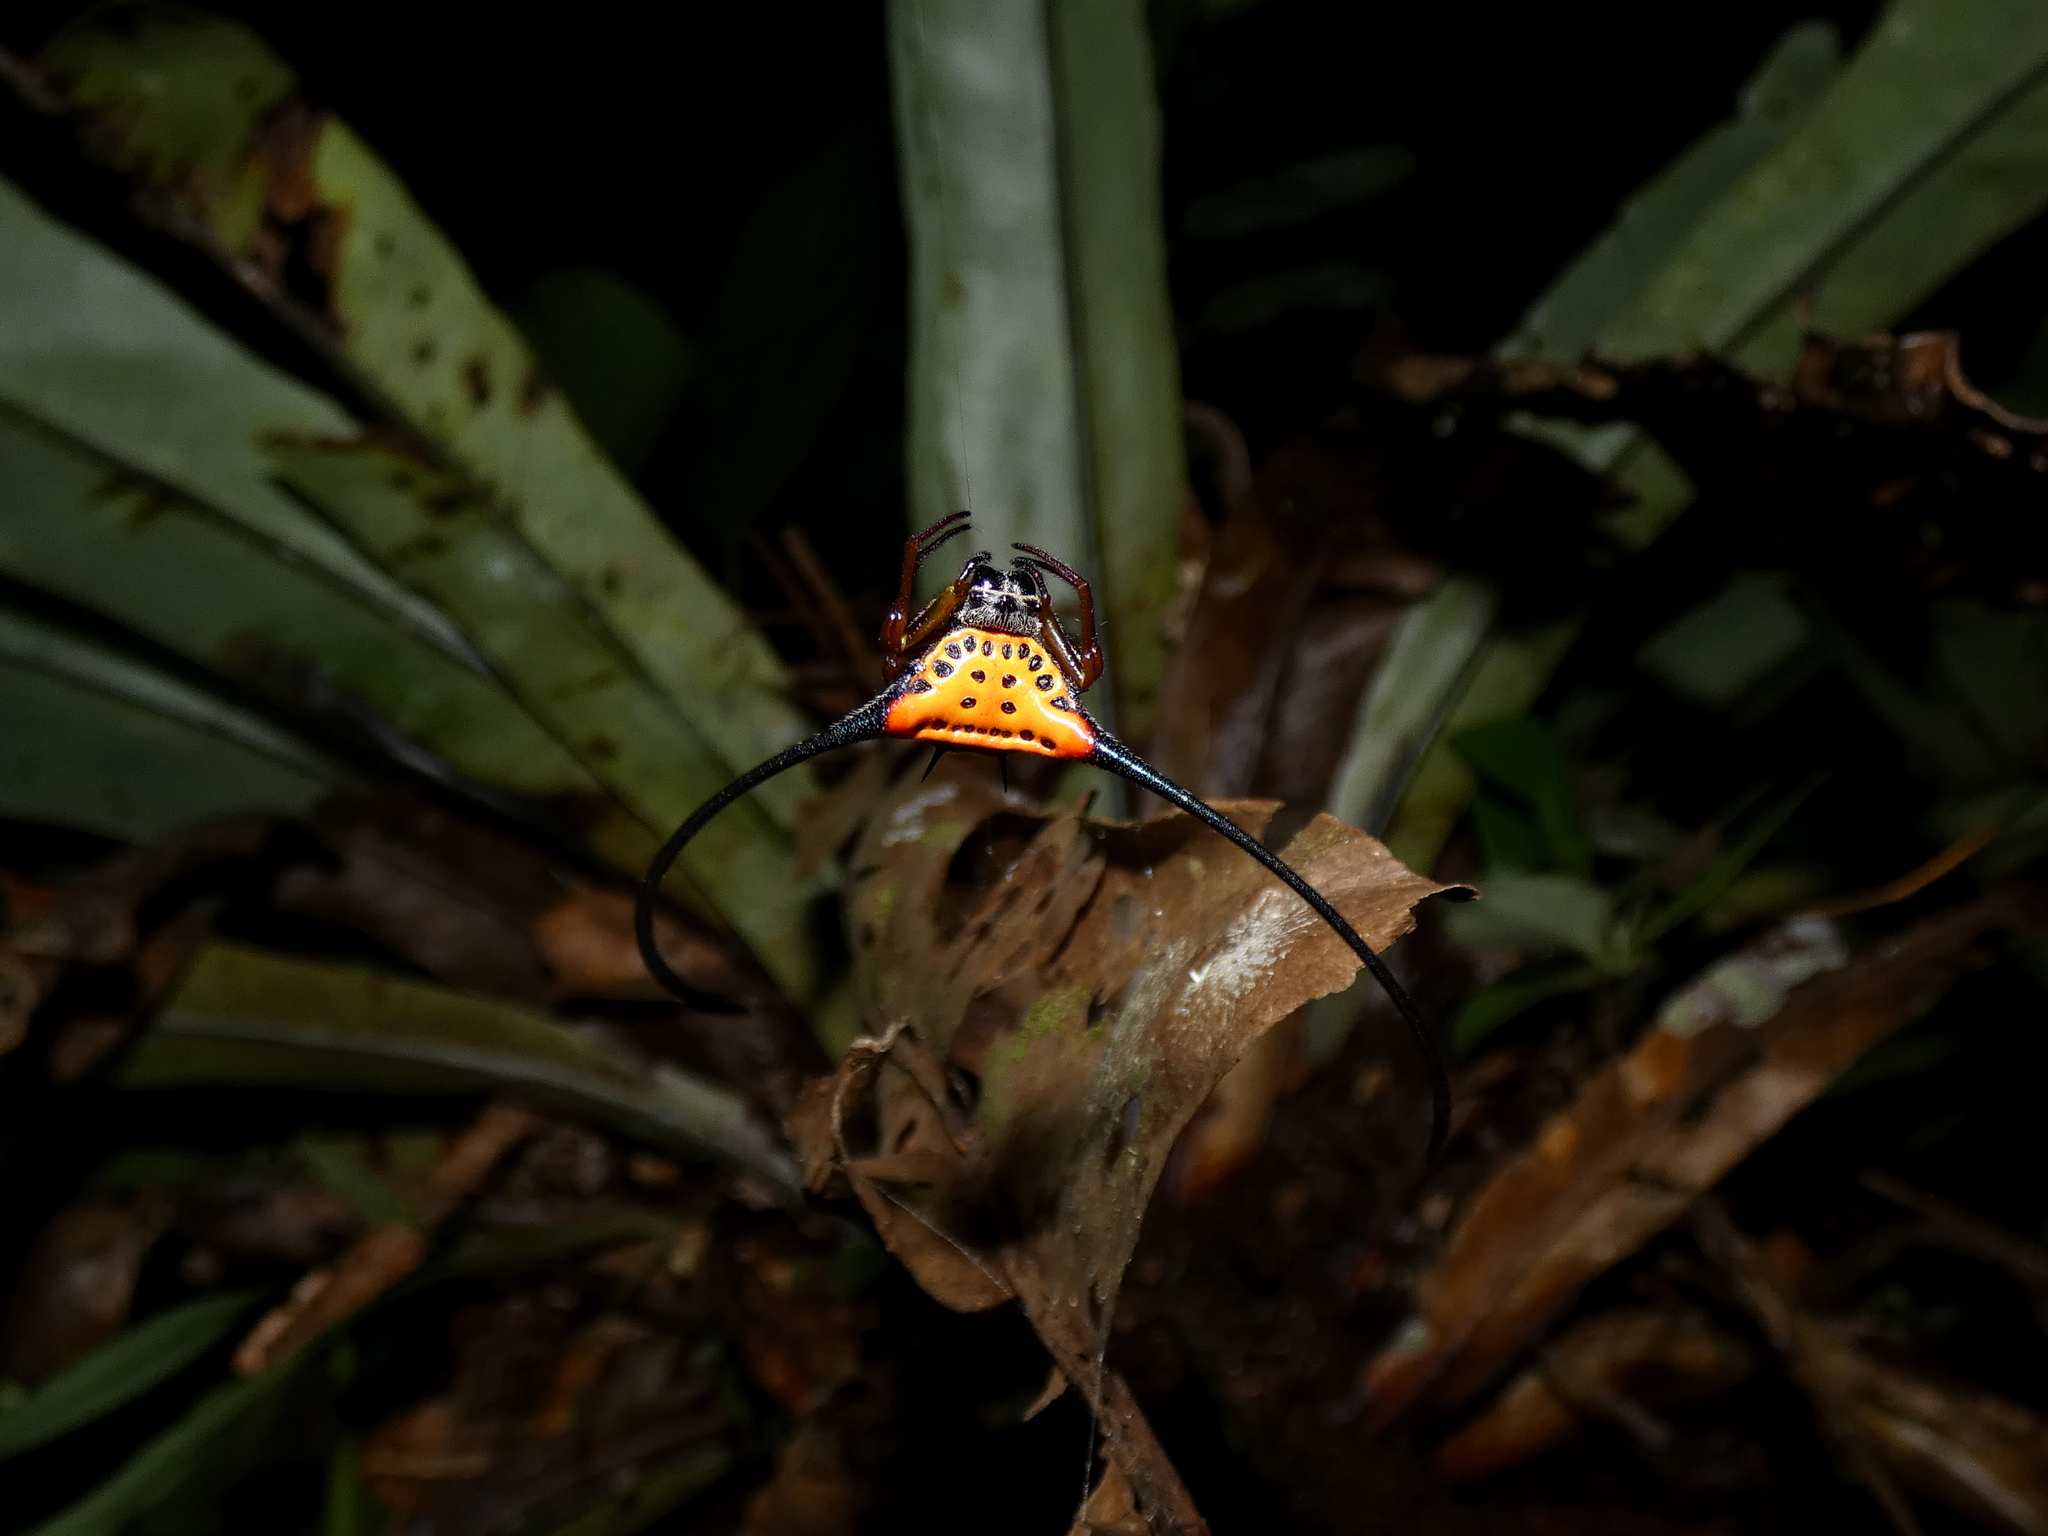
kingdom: Animalia
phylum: Arthropoda
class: Arachnida
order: Araneae
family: Araneidae
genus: Macracantha
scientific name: Macracantha arcuata
